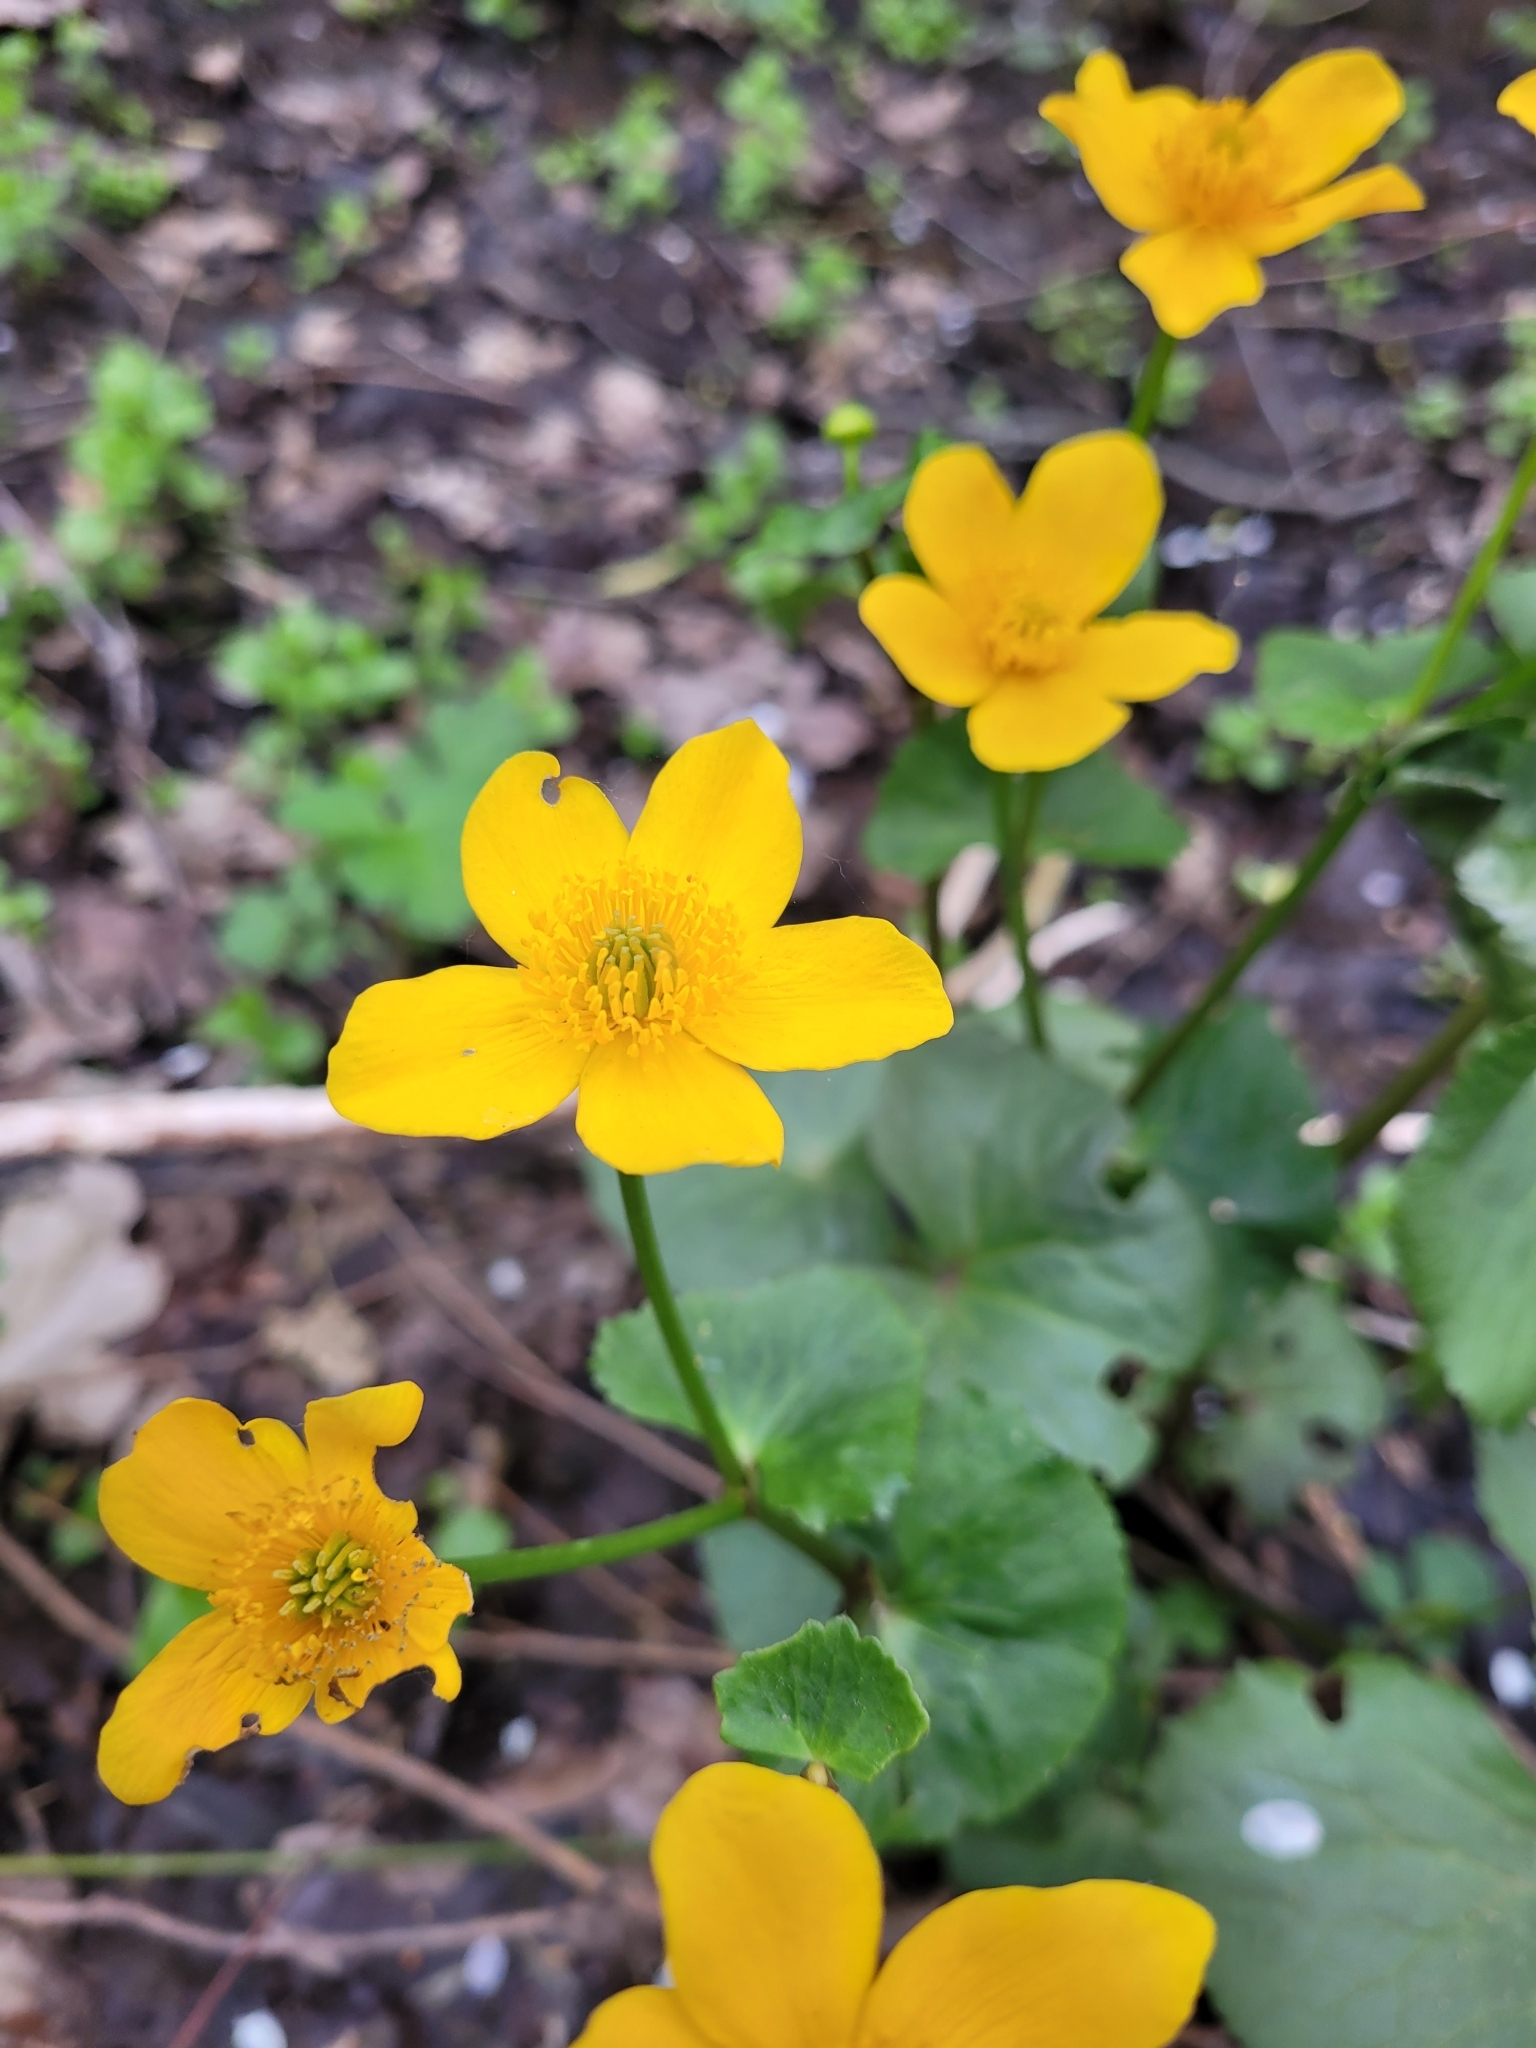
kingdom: Plantae
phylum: Tracheophyta
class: Magnoliopsida
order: Ranunculales
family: Ranunculaceae
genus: Caltha
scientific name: Caltha palustris
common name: Marsh marigold
